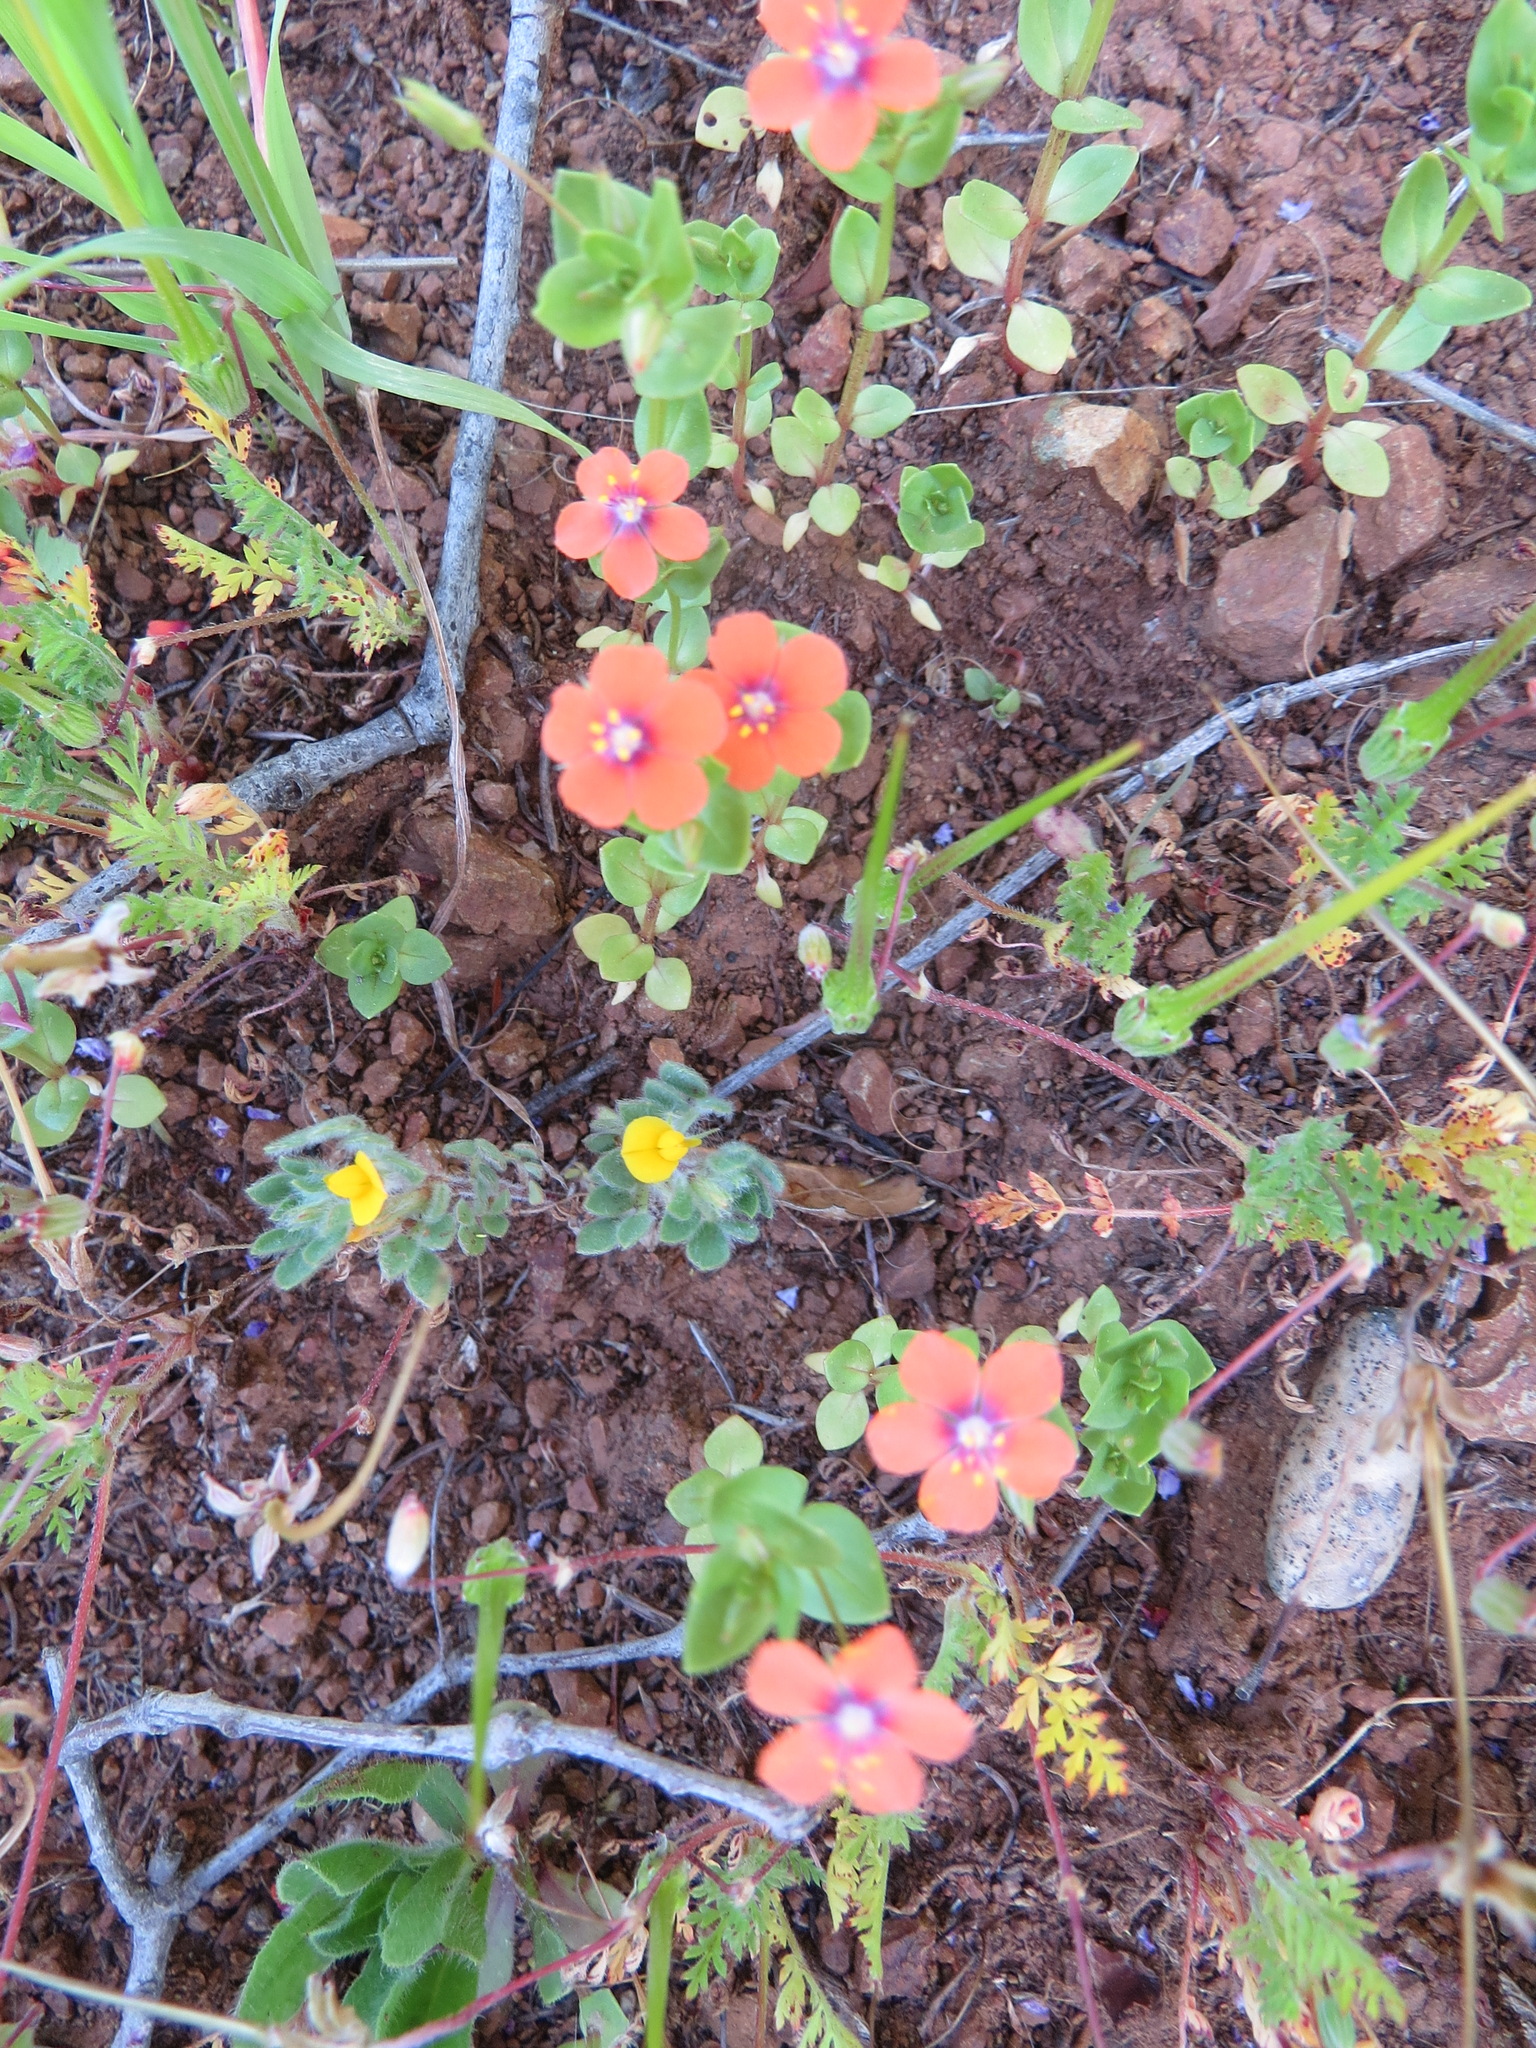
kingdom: Plantae
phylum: Tracheophyta
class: Magnoliopsida
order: Ericales
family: Primulaceae
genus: Lysimachia
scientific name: Lysimachia arvensis
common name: Scarlet pimpernel
